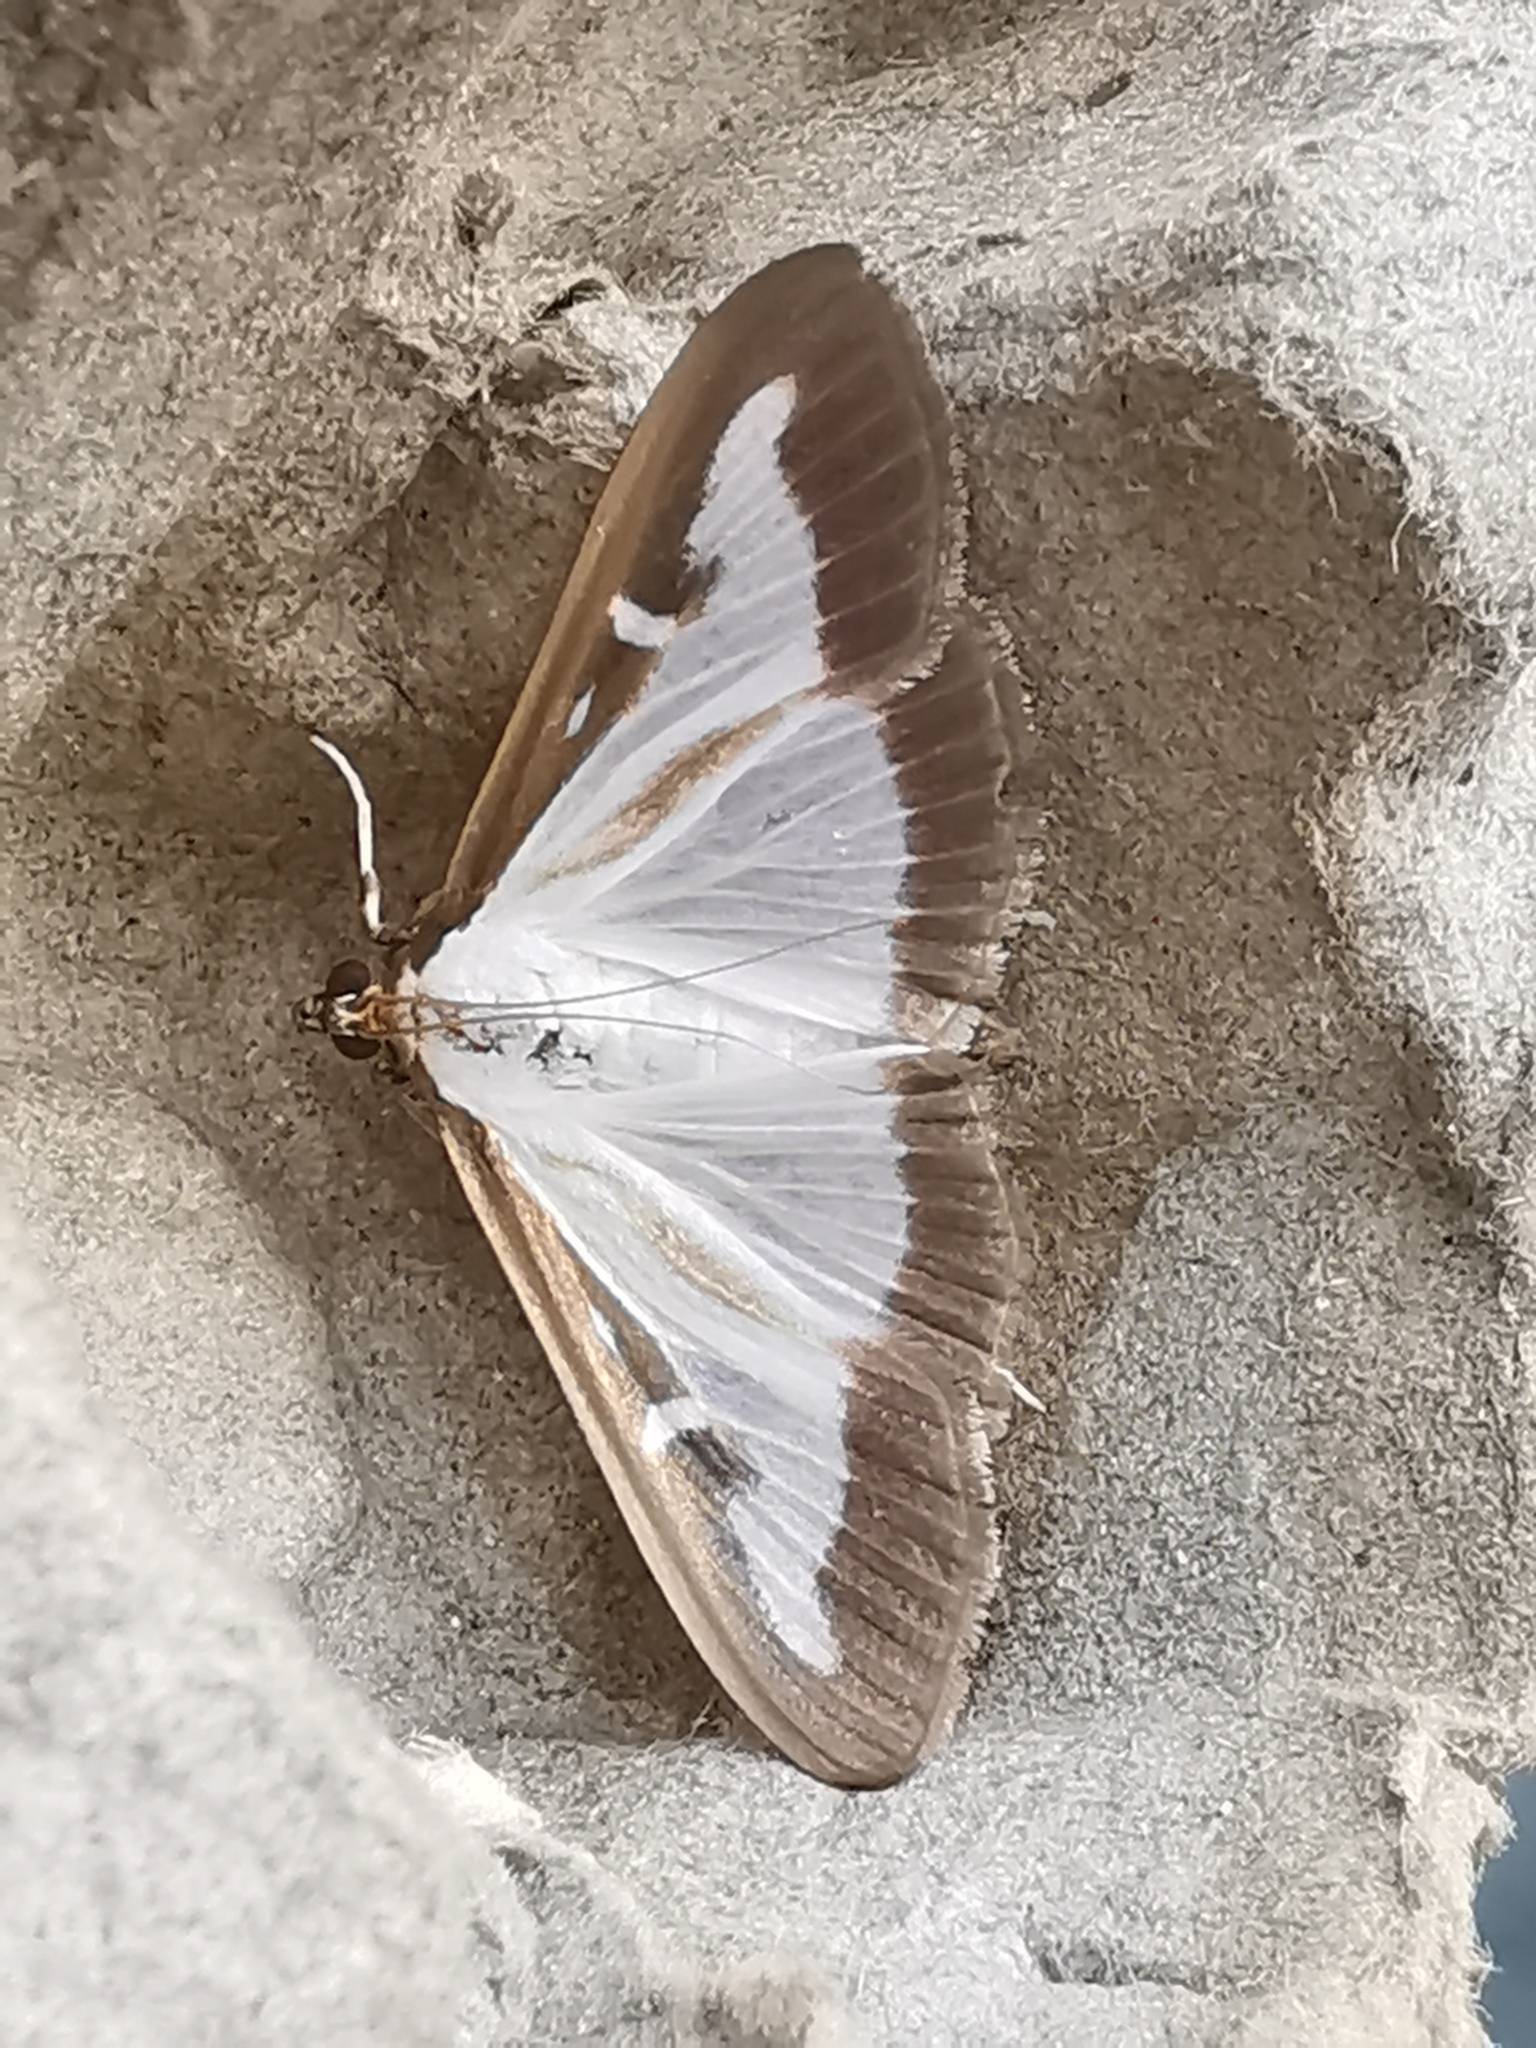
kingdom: Animalia
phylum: Arthropoda
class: Insecta
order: Lepidoptera
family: Crambidae
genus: Cydalima
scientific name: Cydalima perspectalis
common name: Box tree moth
